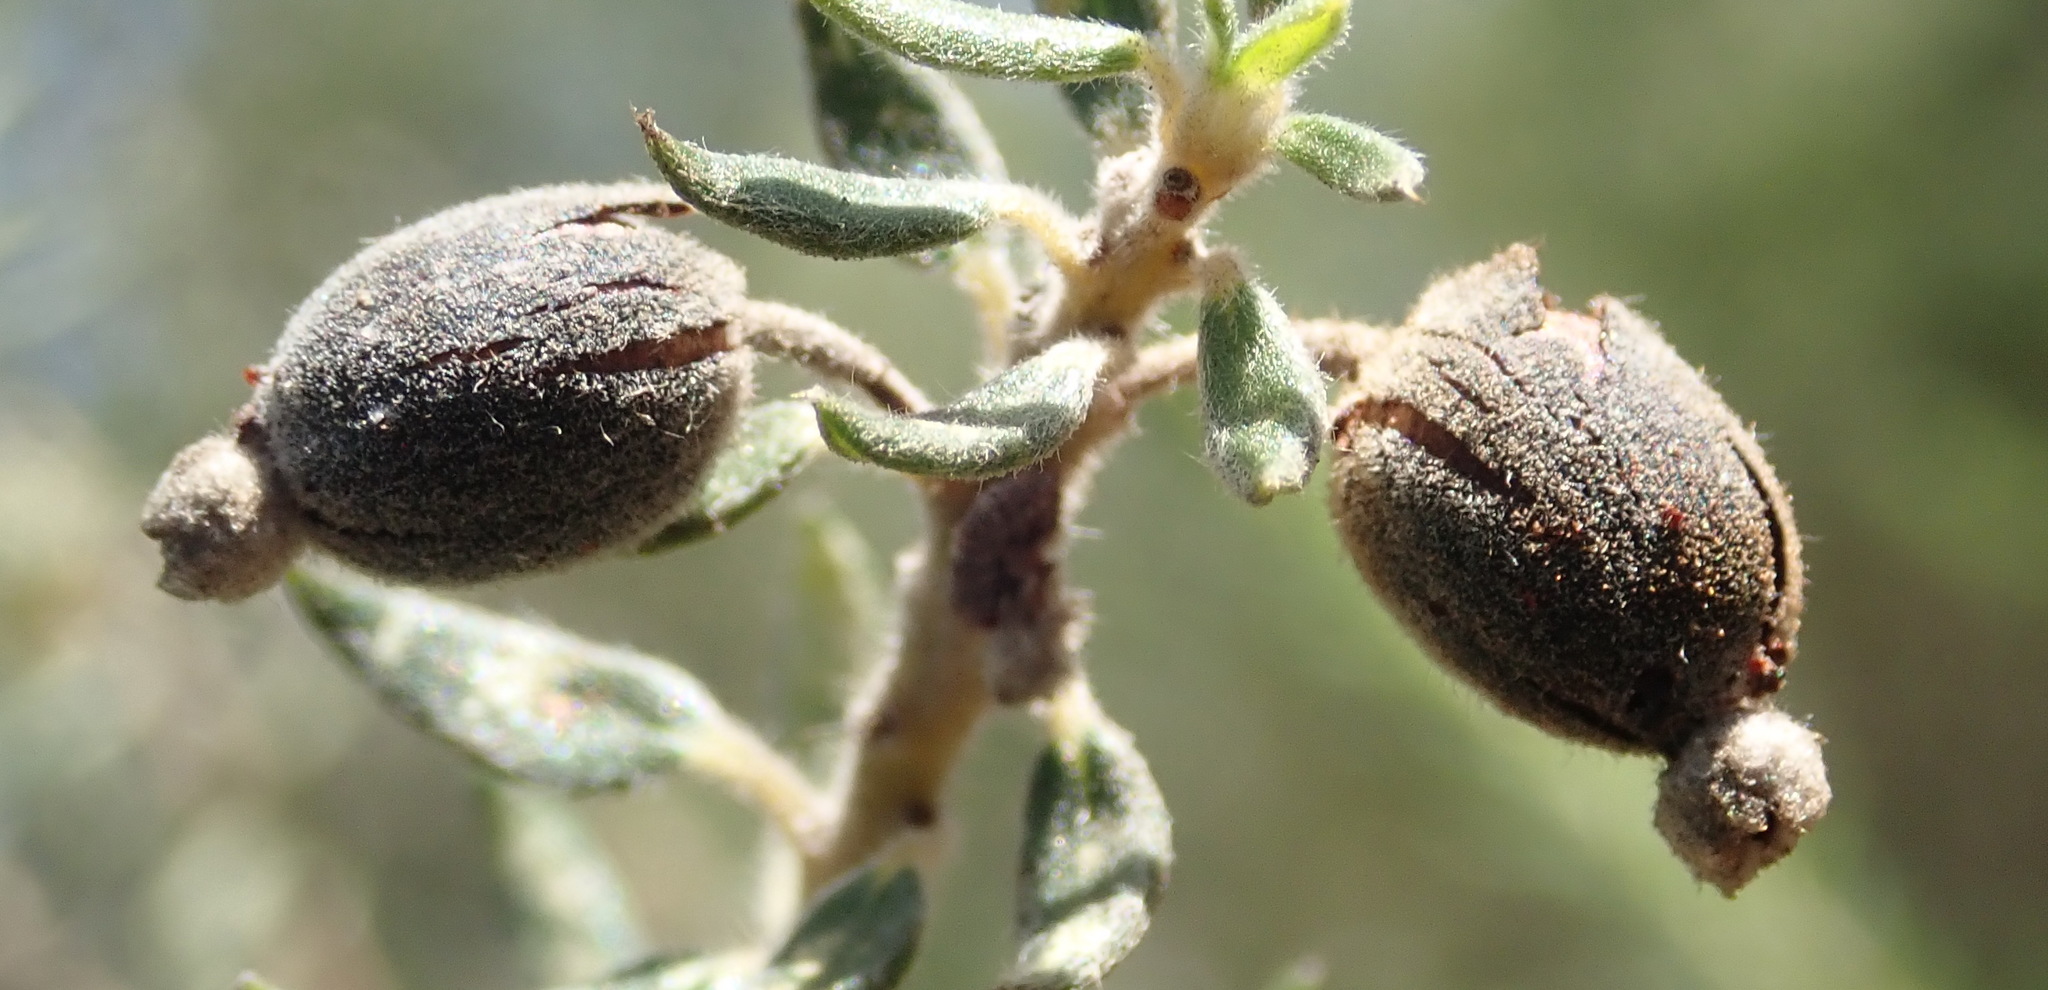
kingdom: Plantae
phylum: Tracheophyta
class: Magnoliopsida
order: Rosales
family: Rhamnaceae
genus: Phylica
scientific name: Phylica pinea
